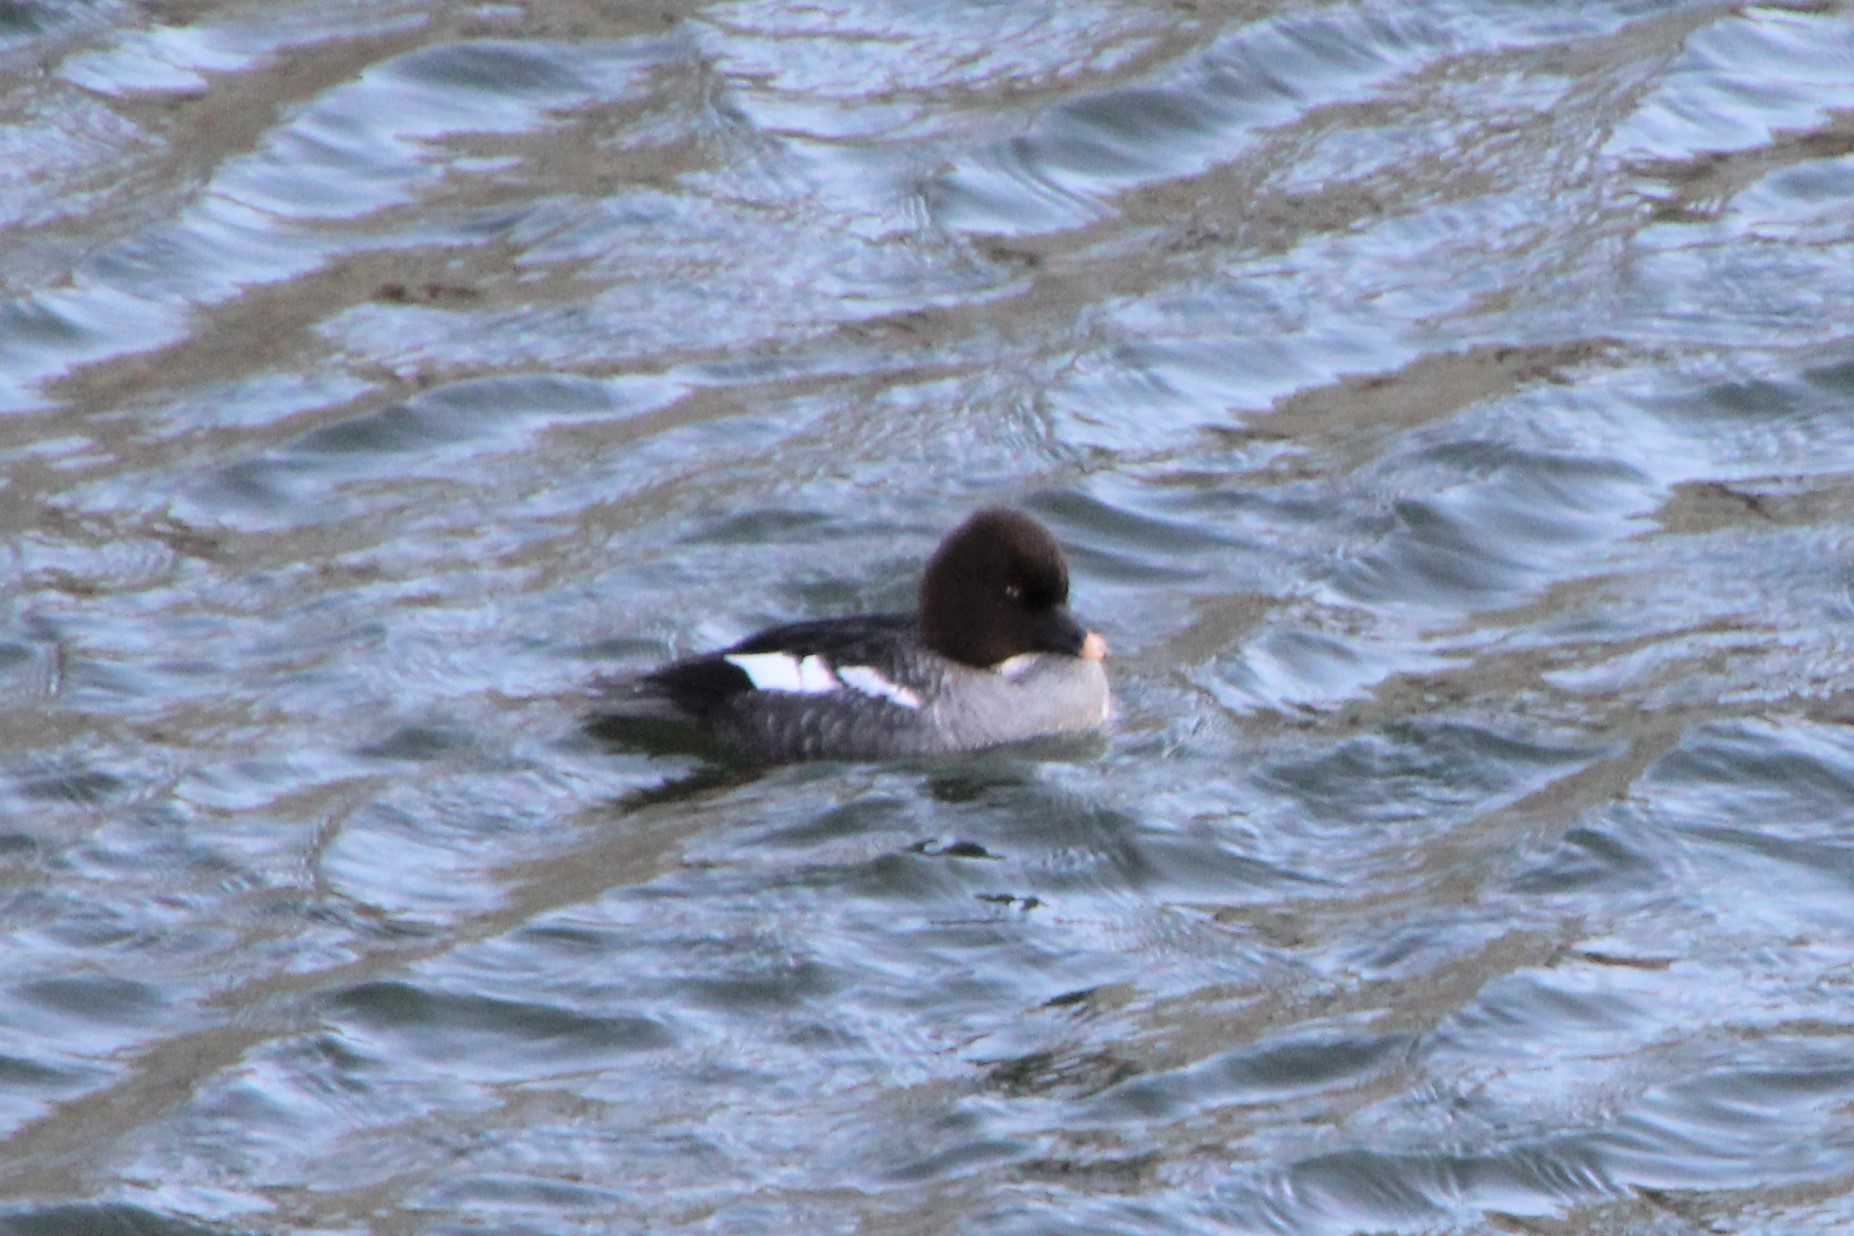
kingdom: Animalia
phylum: Chordata
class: Aves
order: Anseriformes
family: Anatidae
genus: Bucephala
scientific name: Bucephala clangula
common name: Common goldeneye
